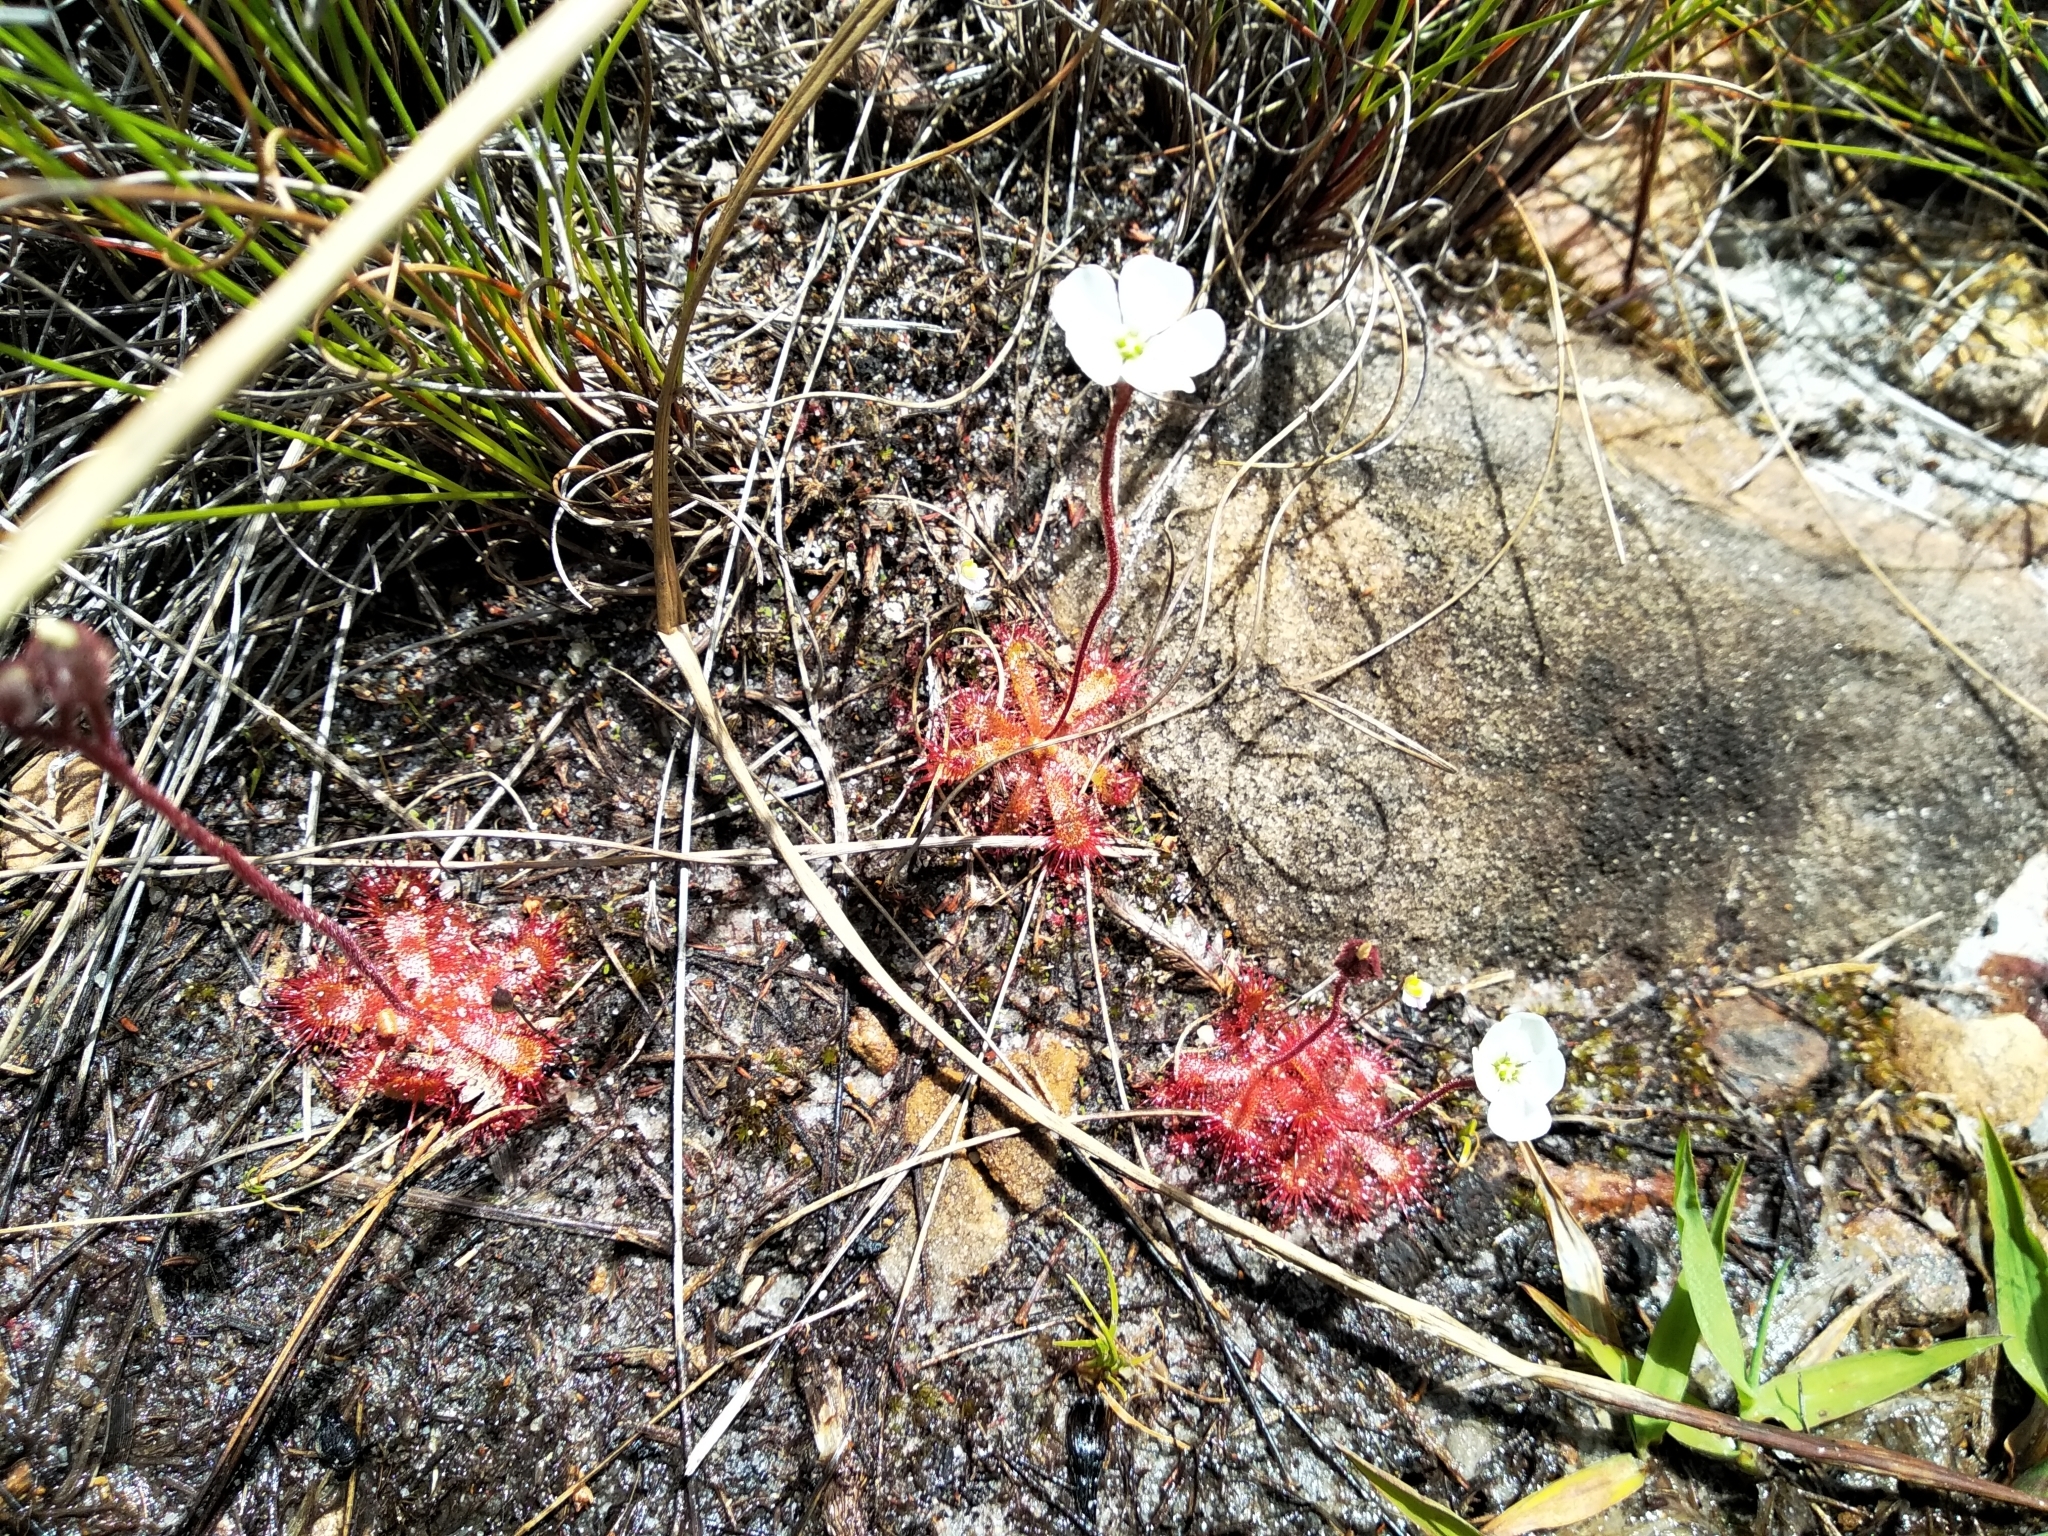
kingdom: Plantae
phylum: Tracheophyta
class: Magnoliopsida
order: Caryophyllales
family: Droseraceae
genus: Drosera
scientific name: Drosera trinervia
